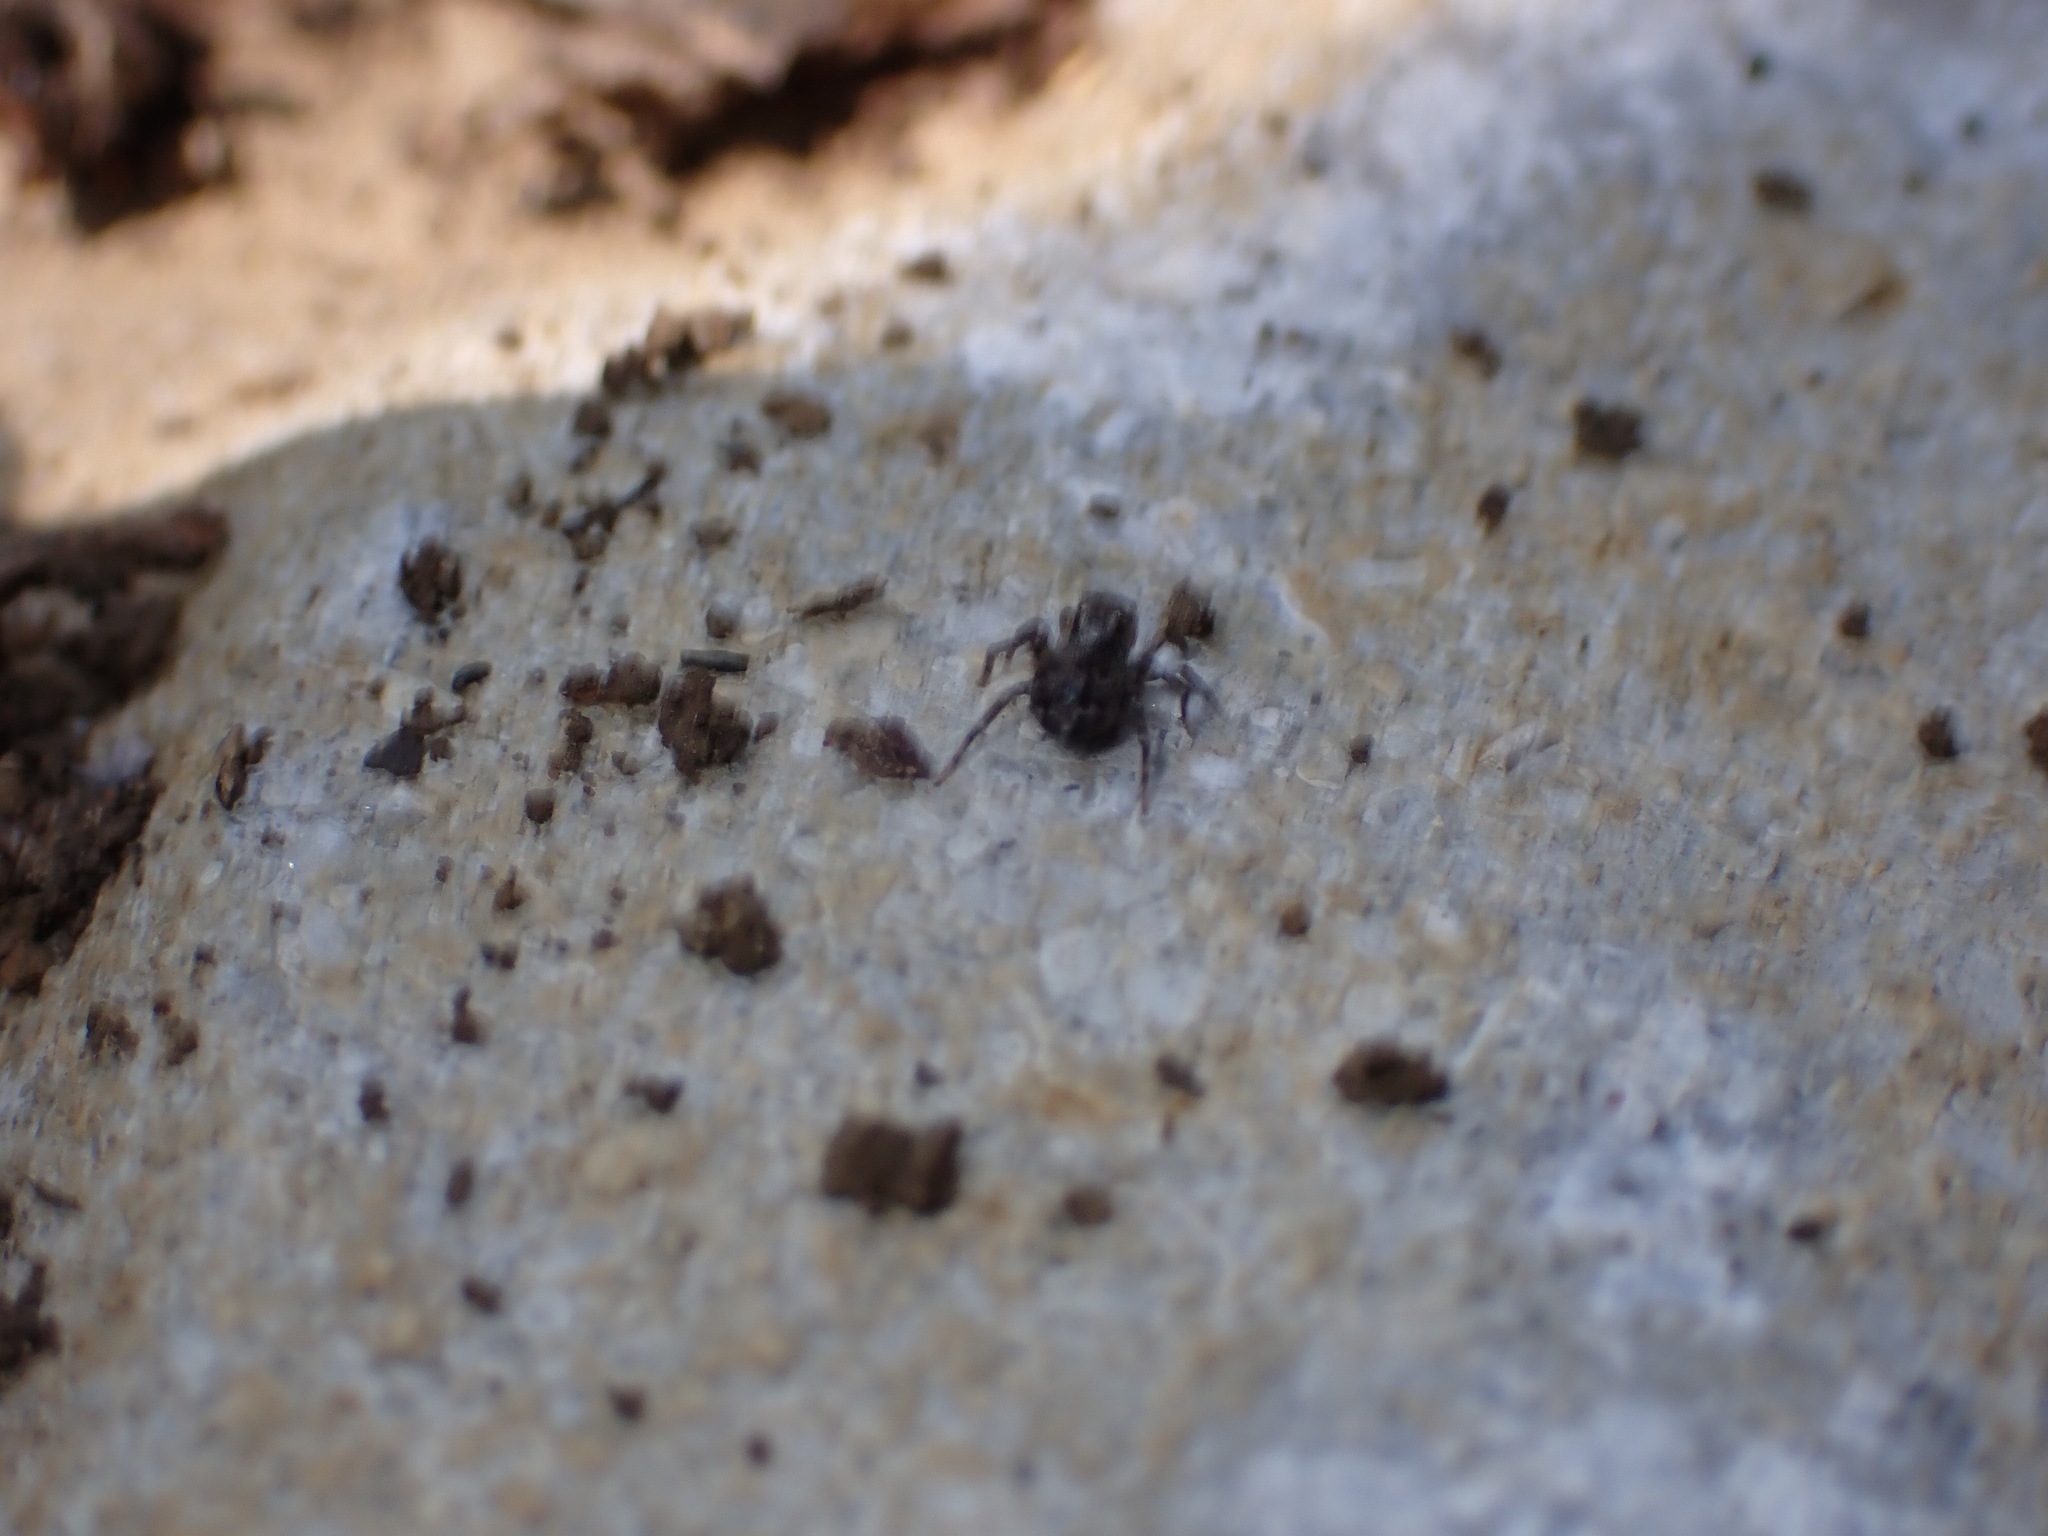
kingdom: Animalia
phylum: Arthropoda
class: Arachnida
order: Araneae
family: Salticidae
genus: Naphrys
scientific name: Naphrys pulex
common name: Flea jumping spider
